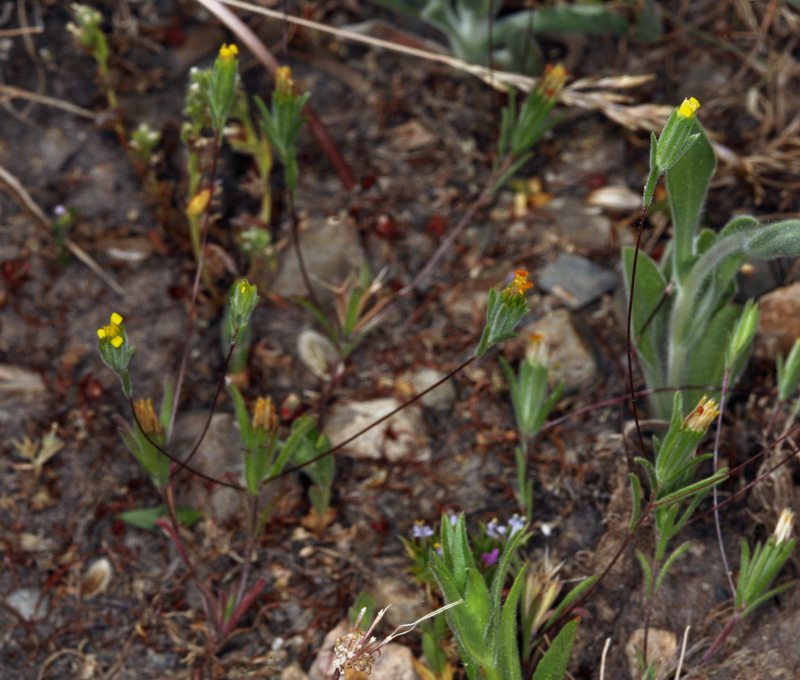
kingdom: Plantae
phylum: Tracheophyta
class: Magnoliopsida
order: Asterales
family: Asteraceae
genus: Rigiopappus
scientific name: Rigiopappus leptocladus
